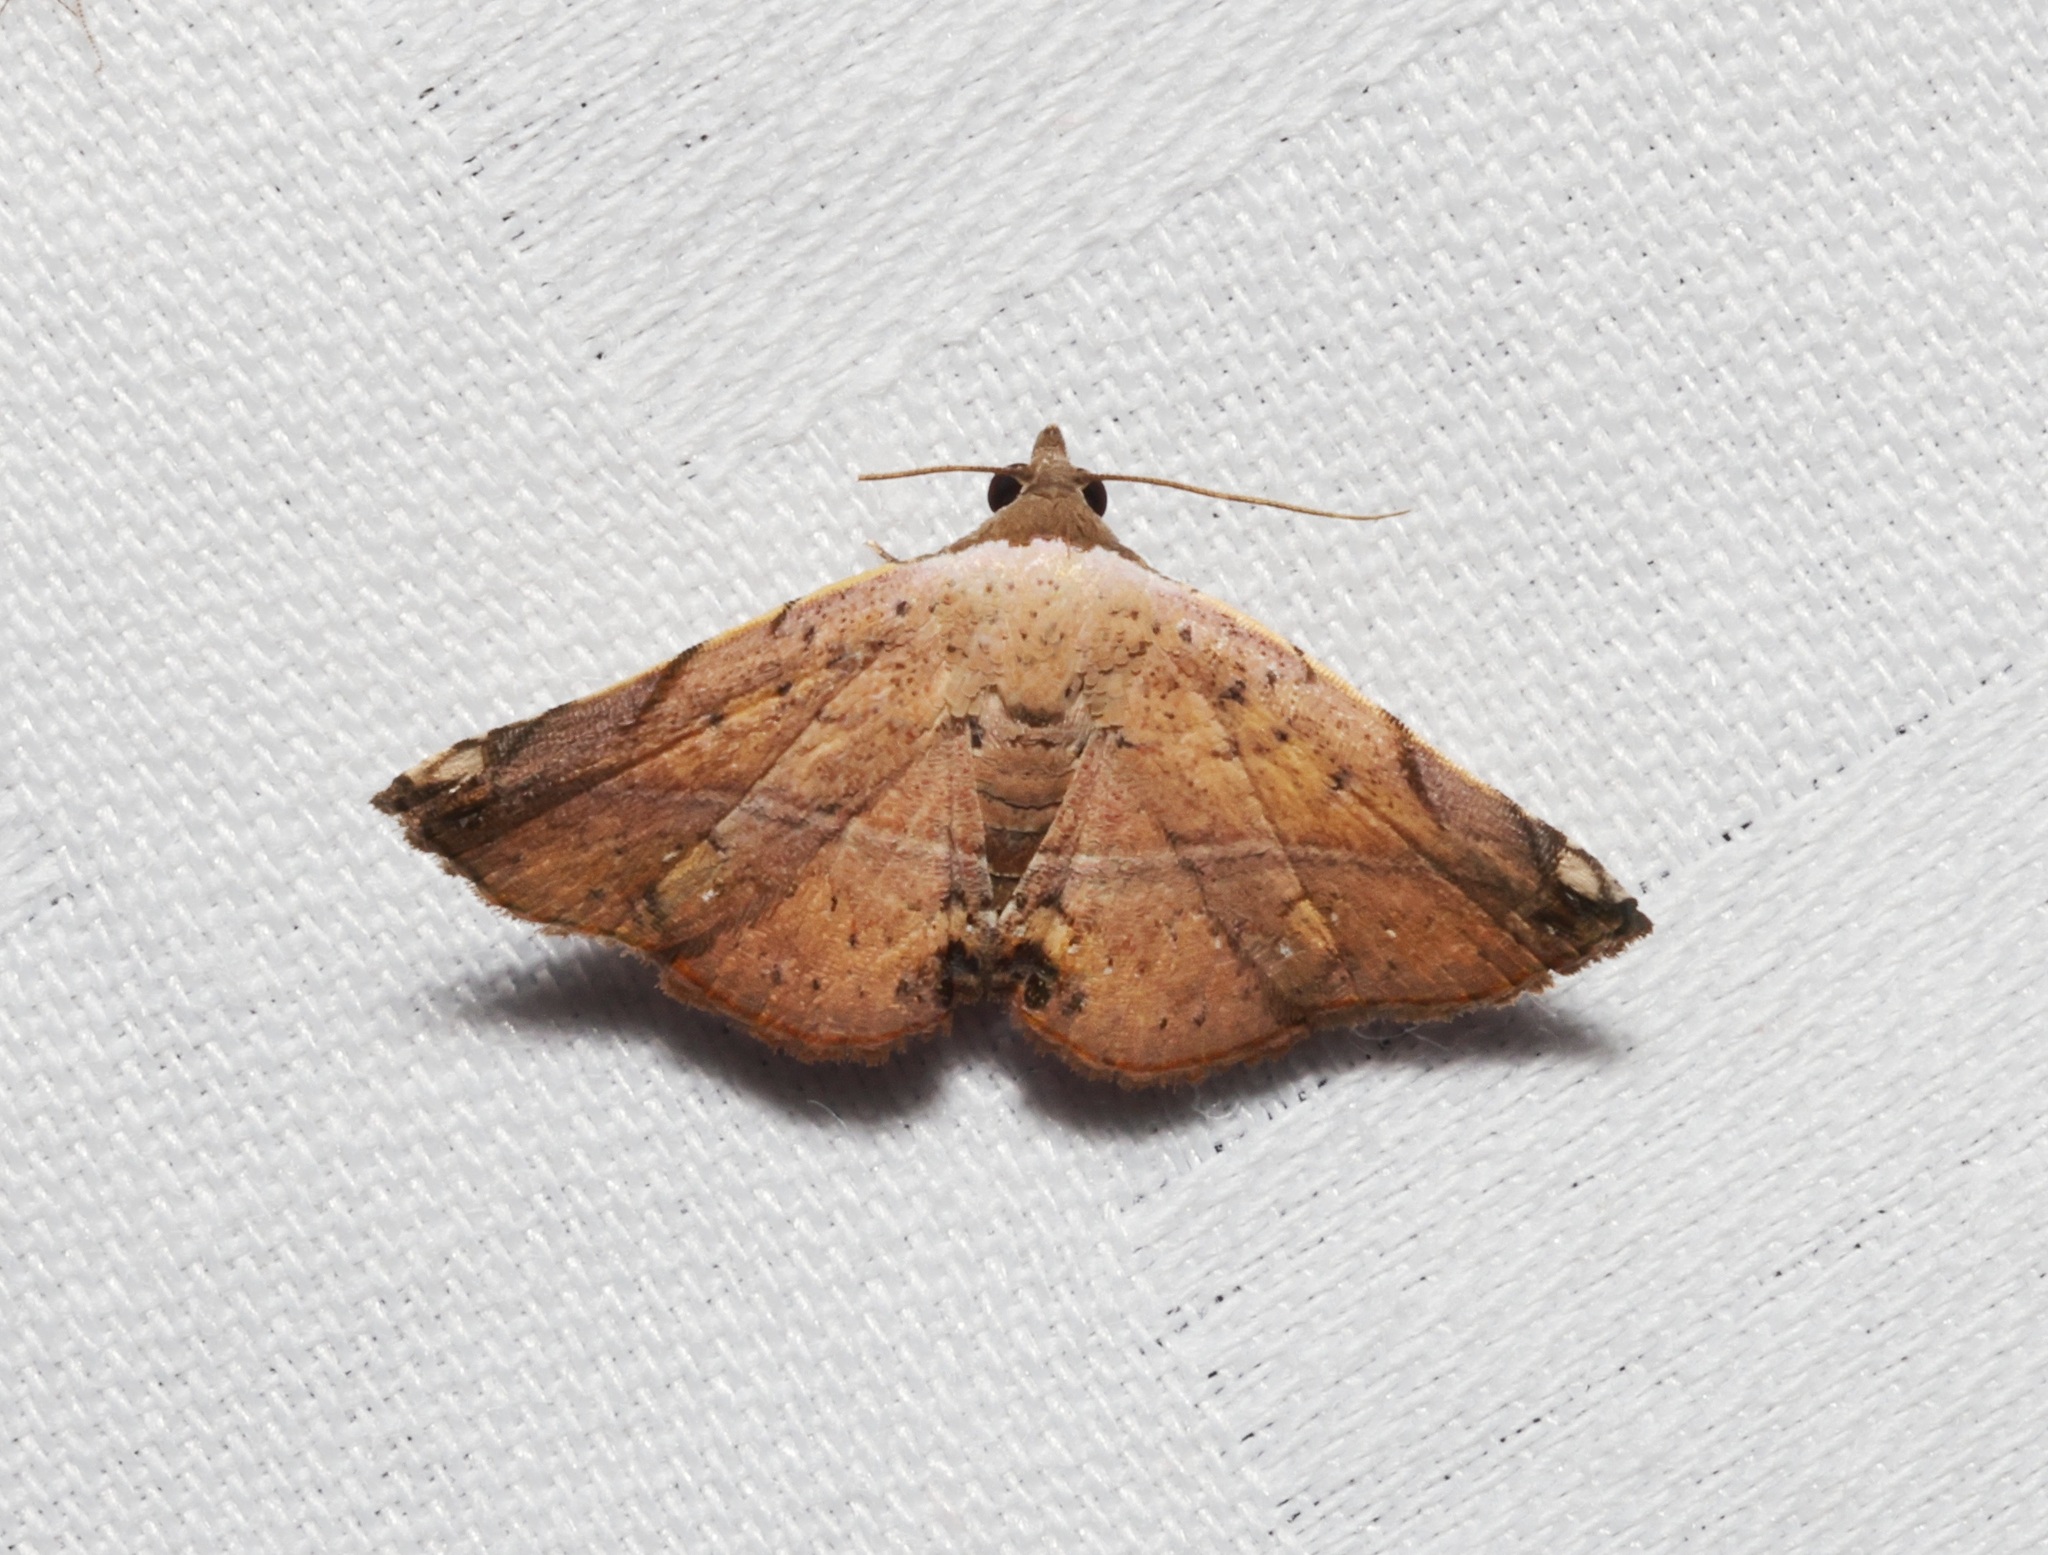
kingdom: Animalia
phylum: Arthropoda
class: Insecta
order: Lepidoptera
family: Noctuidae
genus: Eublemma
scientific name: Eublemma abrupta
